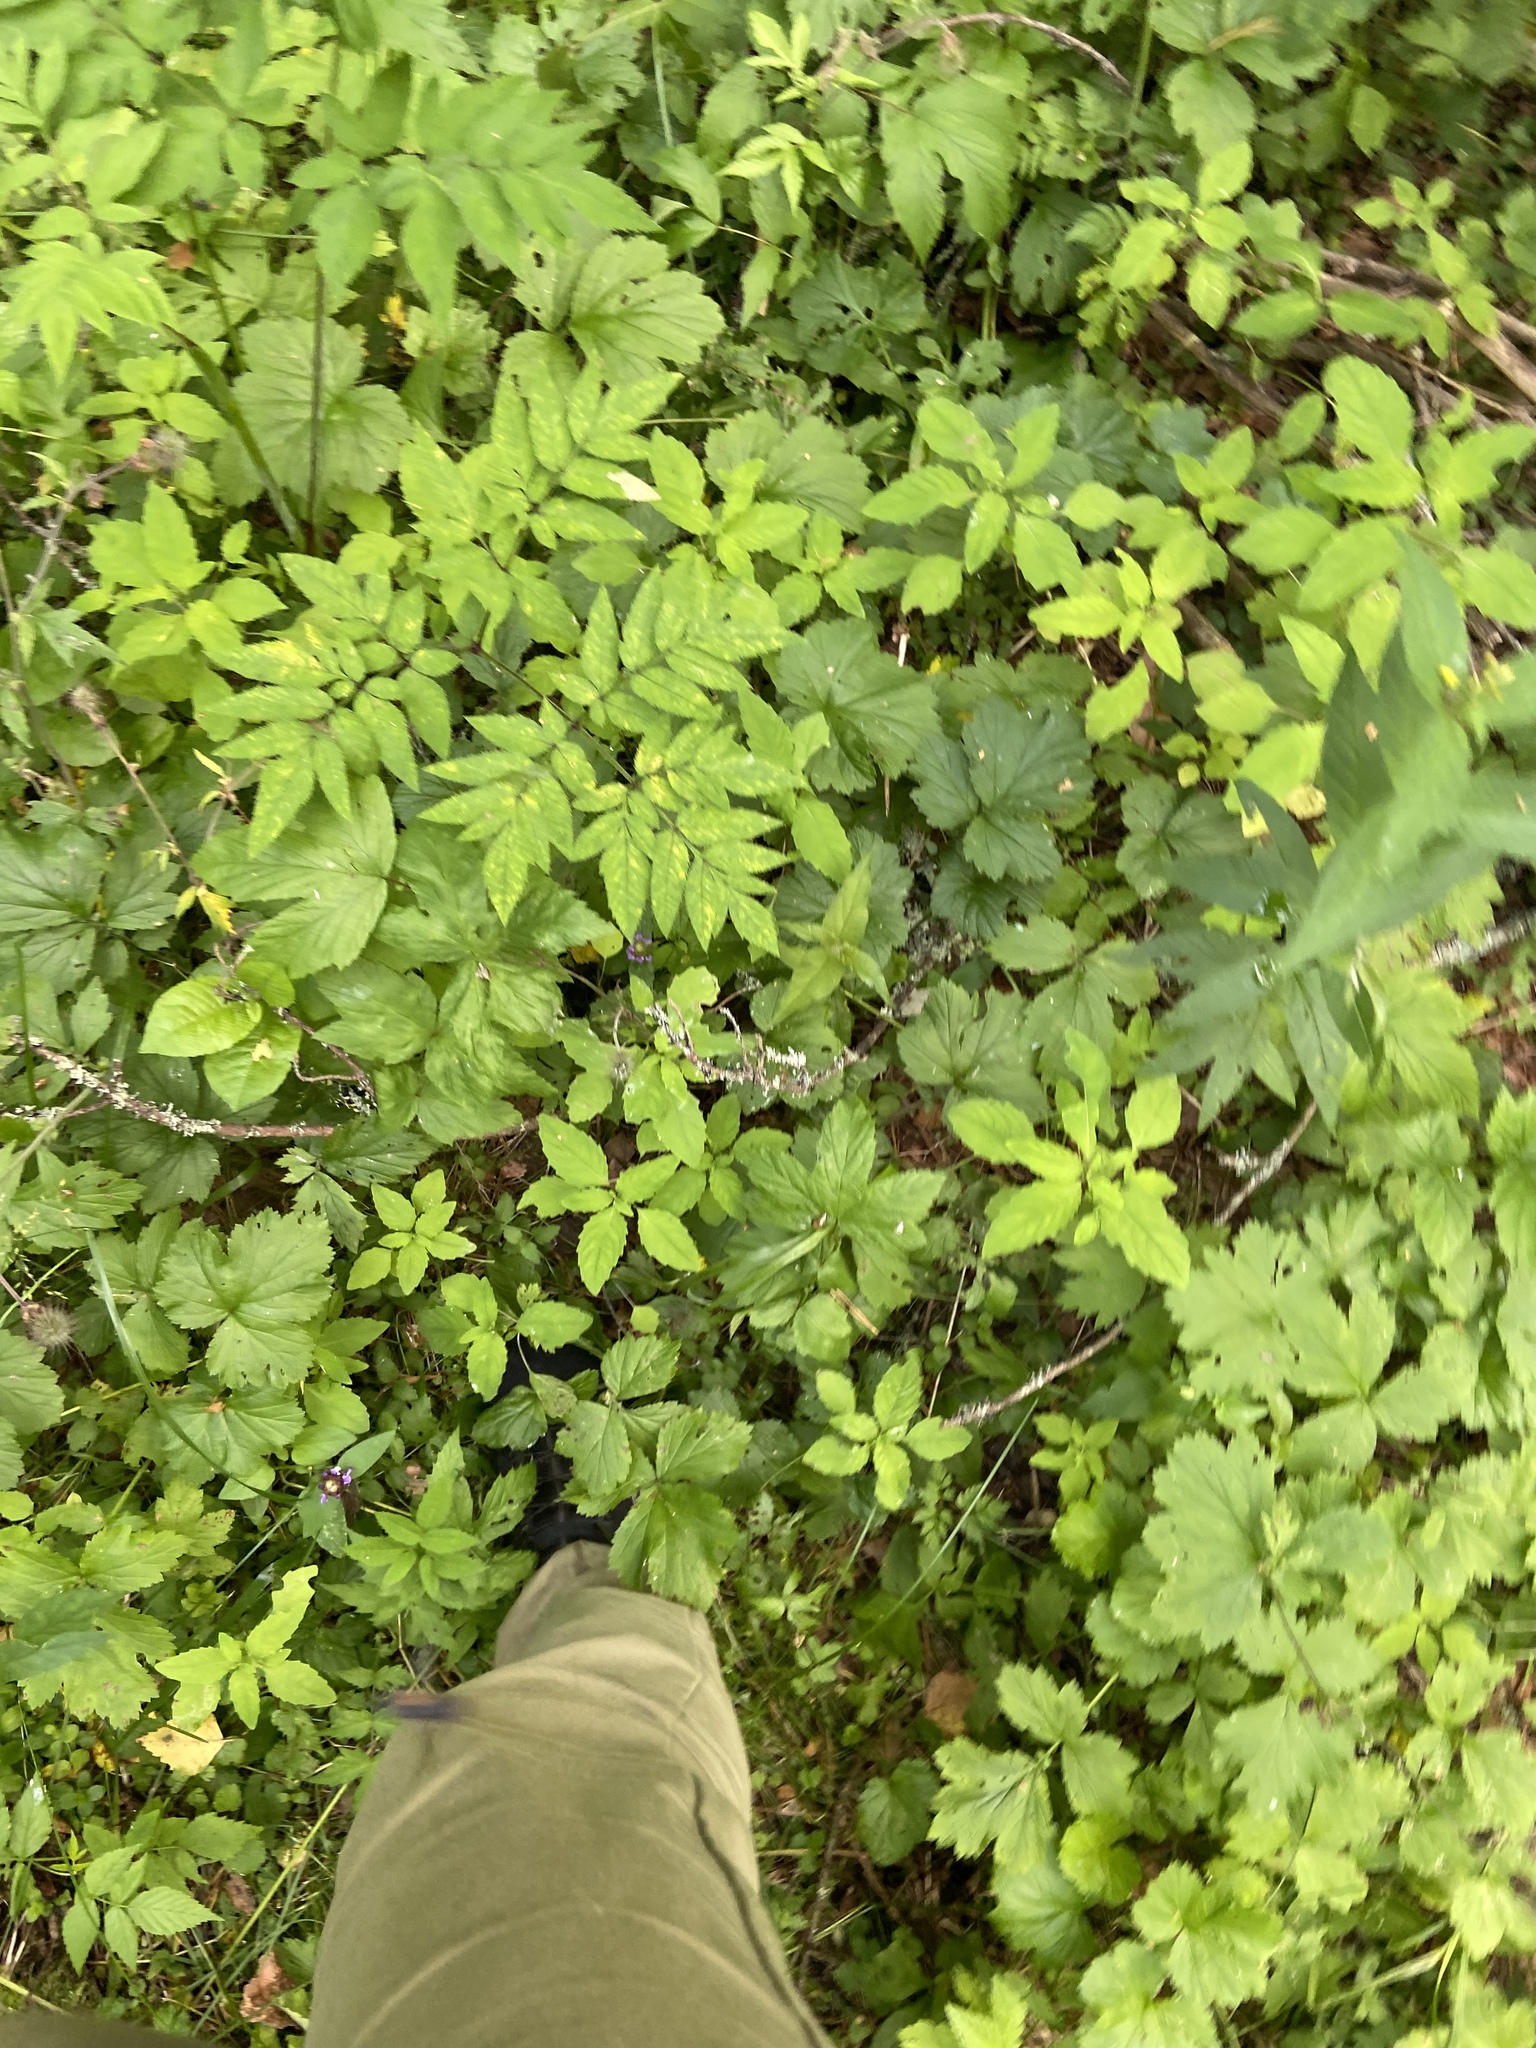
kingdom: Plantae
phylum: Tracheophyta
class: Magnoliopsida
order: Apiales
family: Apiaceae
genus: Angelica
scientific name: Angelica sylvestris
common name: Wild angelica
